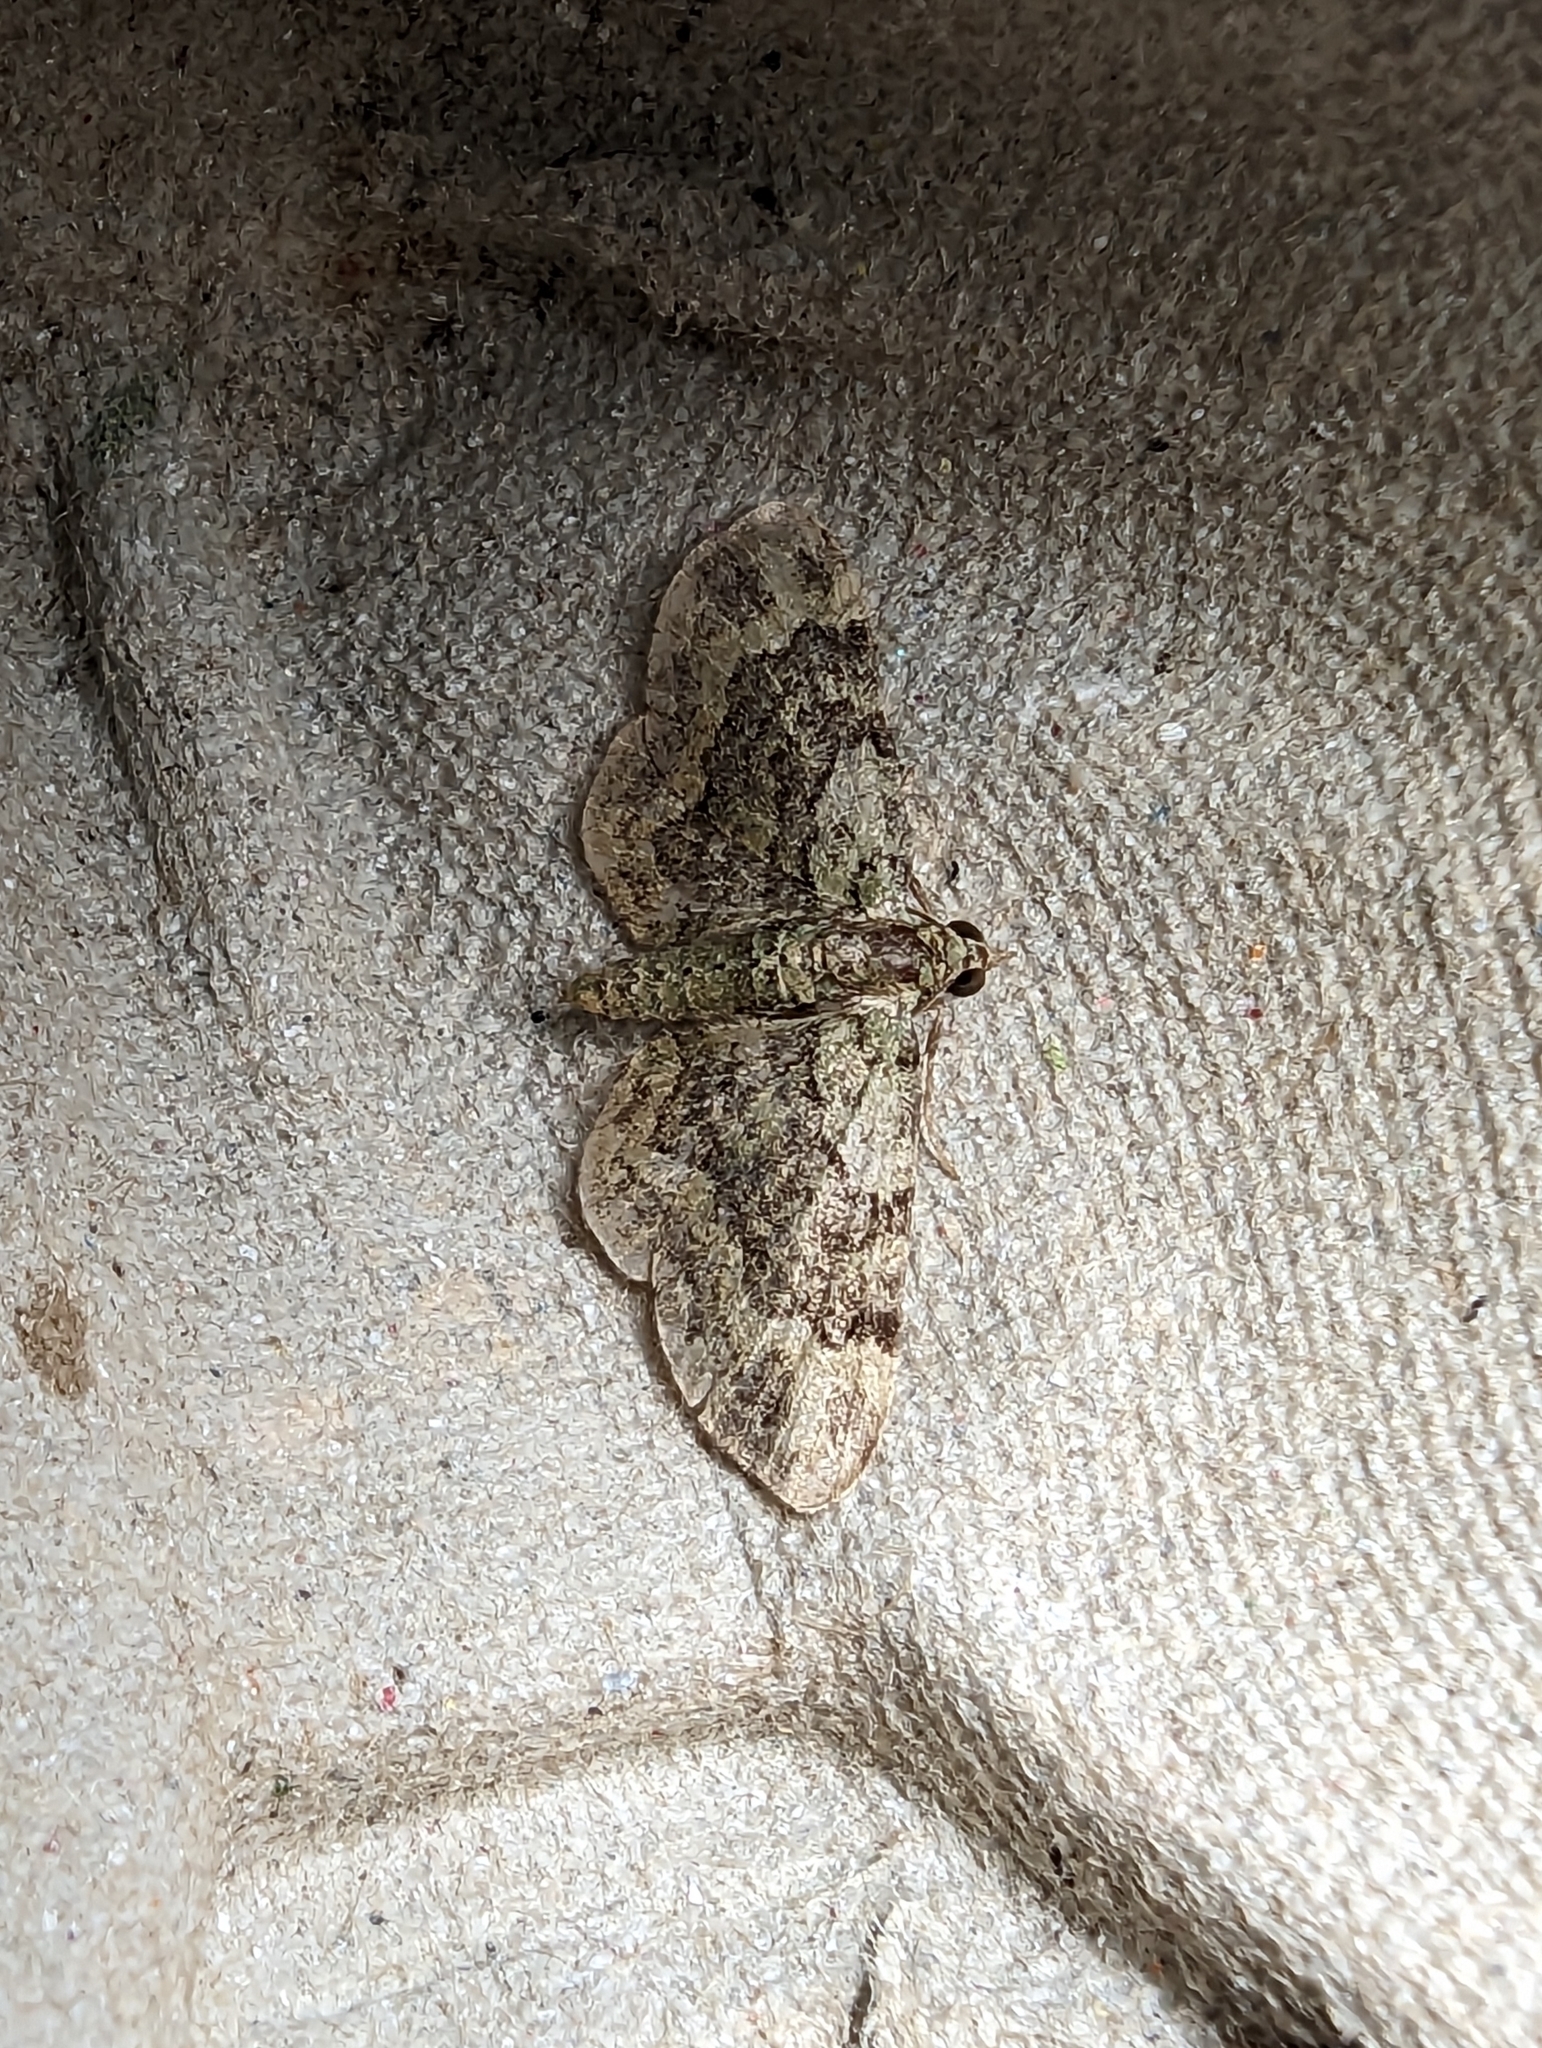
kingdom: Animalia
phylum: Arthropoda
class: Insecta
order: Lepidoptera
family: Geometridae
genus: Pasiphila
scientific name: Pasiphila rectangulata
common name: Green pug
